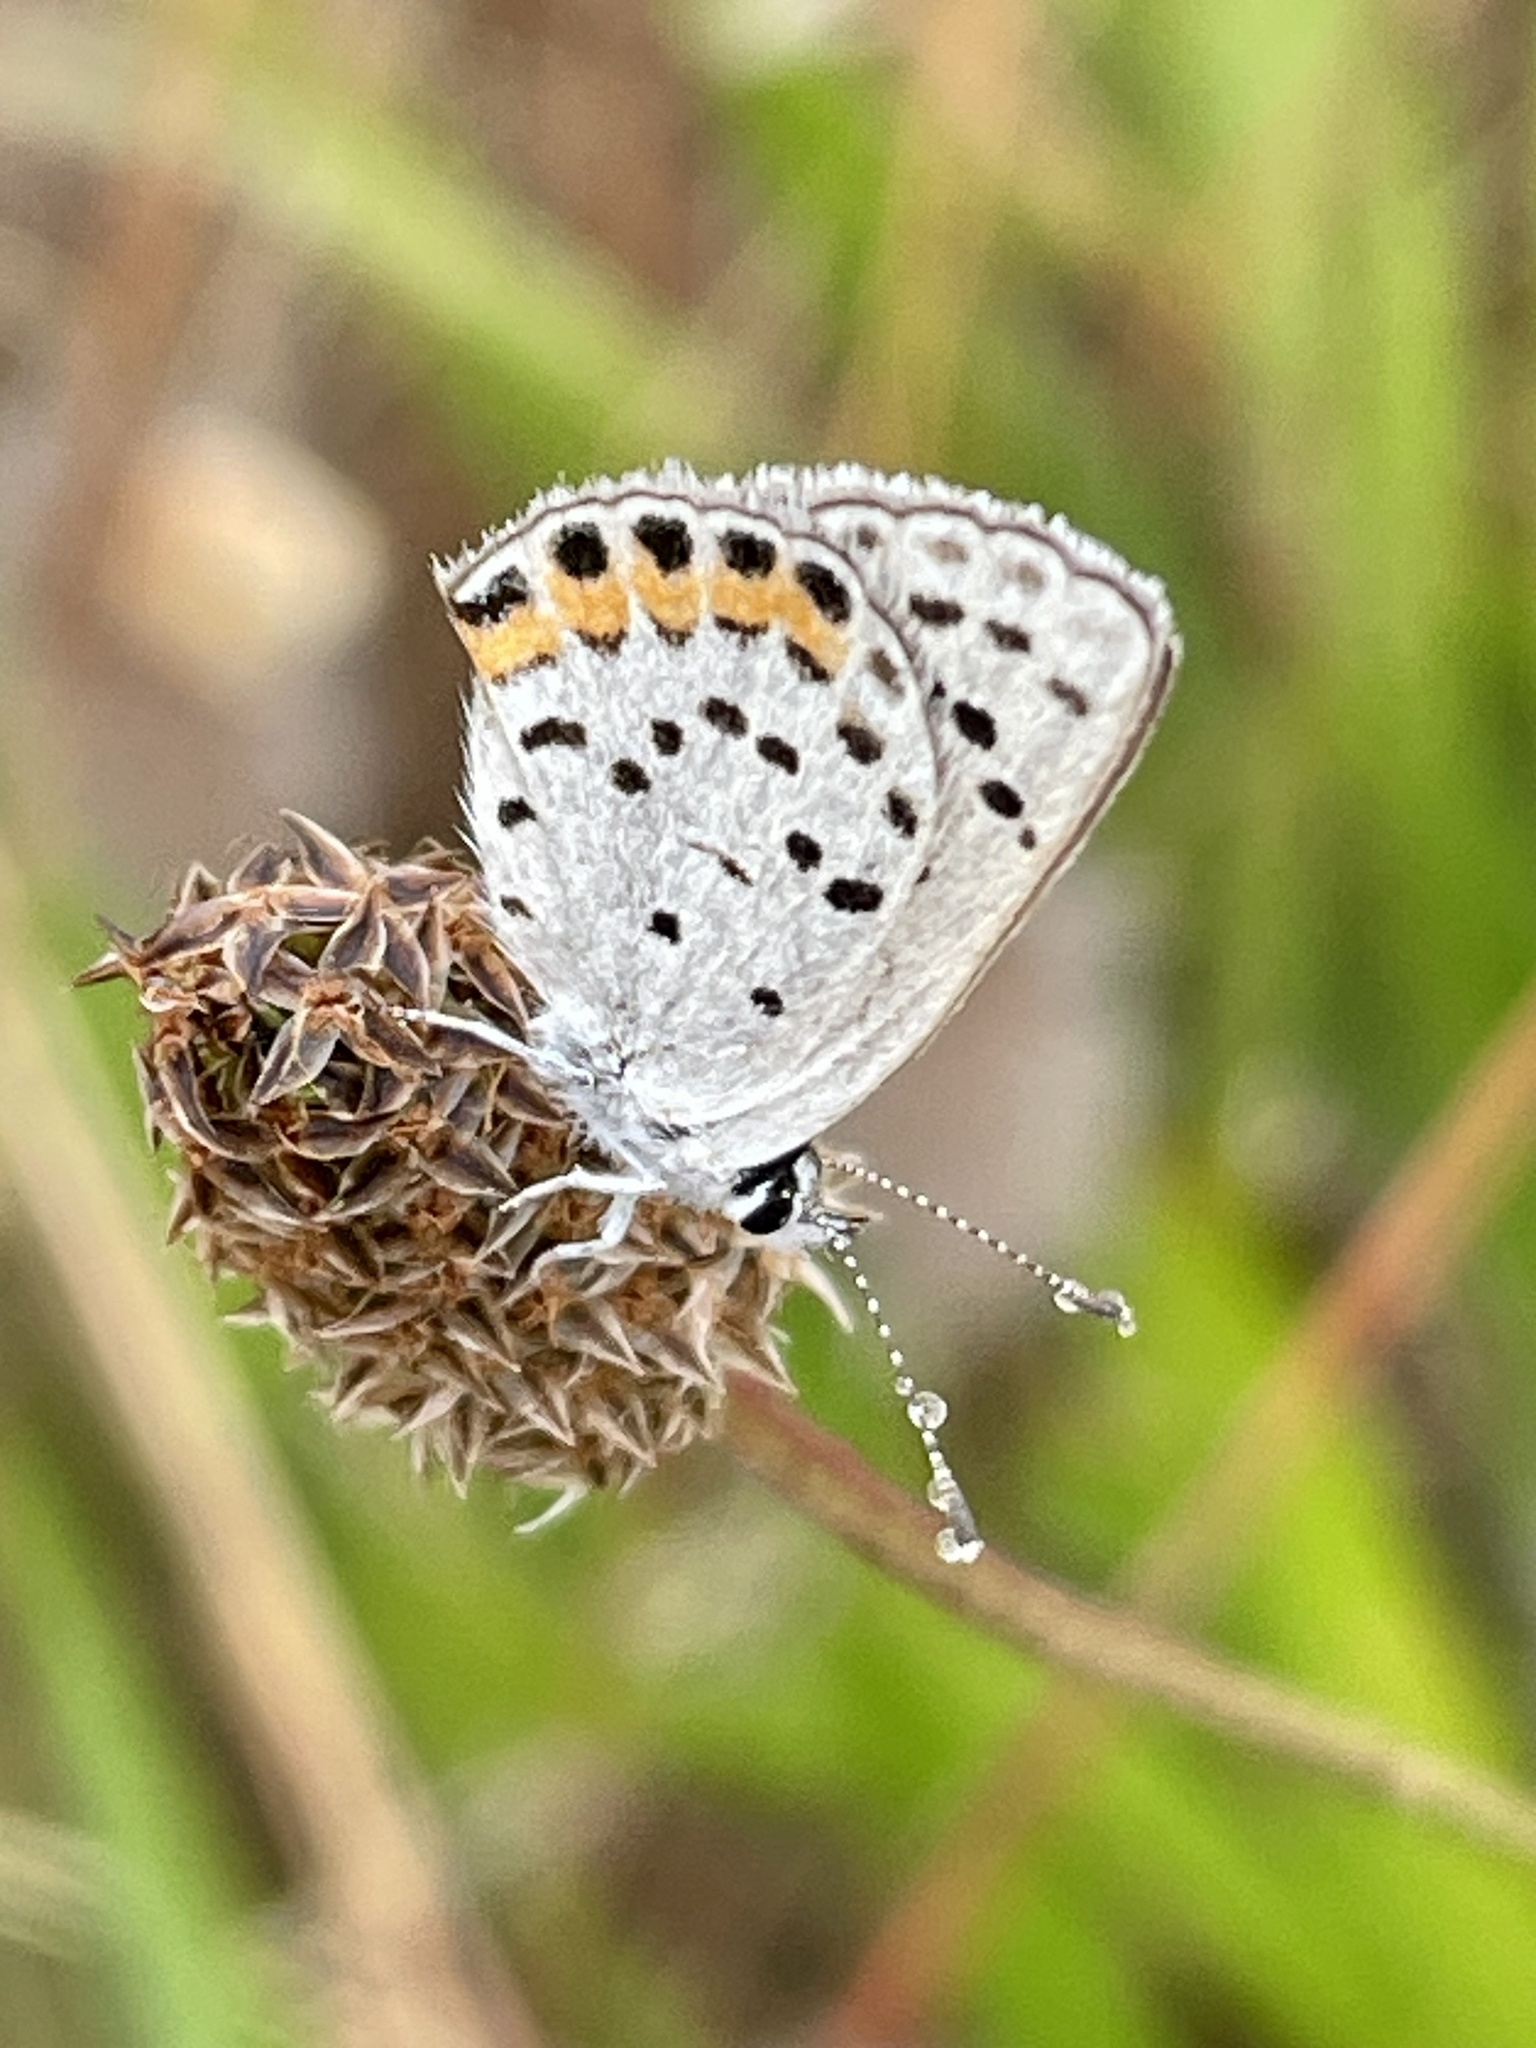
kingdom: Animalia
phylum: Arthropoda
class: Insecta
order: Lepidoptera
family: Lycaenidae
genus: Icaricia
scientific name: Icaricia acmon
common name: Acmon blue
